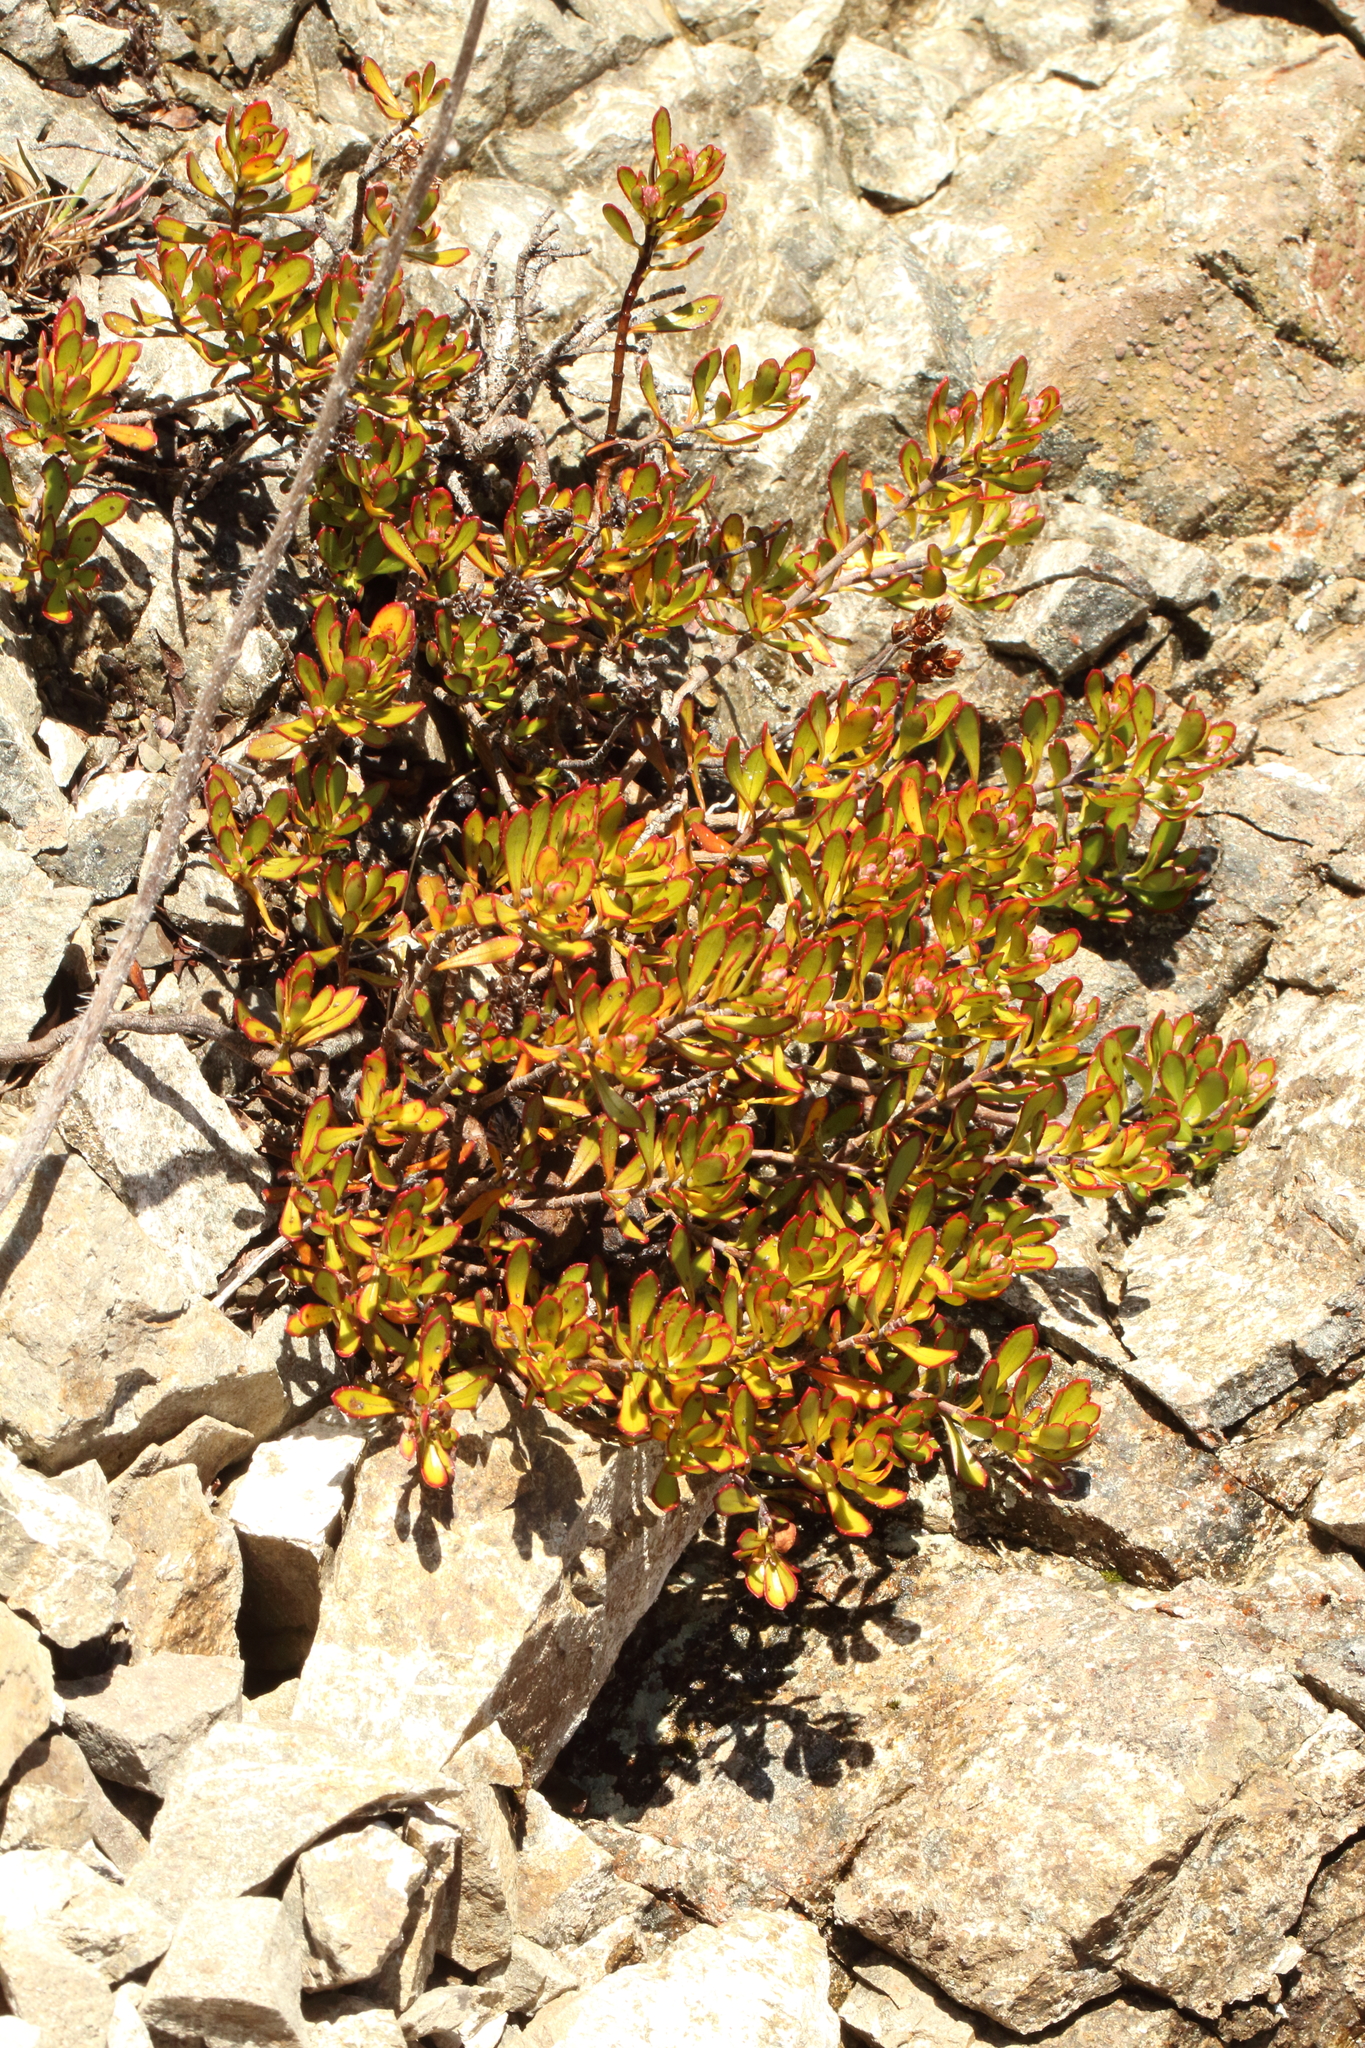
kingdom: Plantae
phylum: Tracheophyta
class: Magnoliopsida
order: Lamiales
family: Plantaginaceae
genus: Veronica
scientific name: Veronica raoulii
